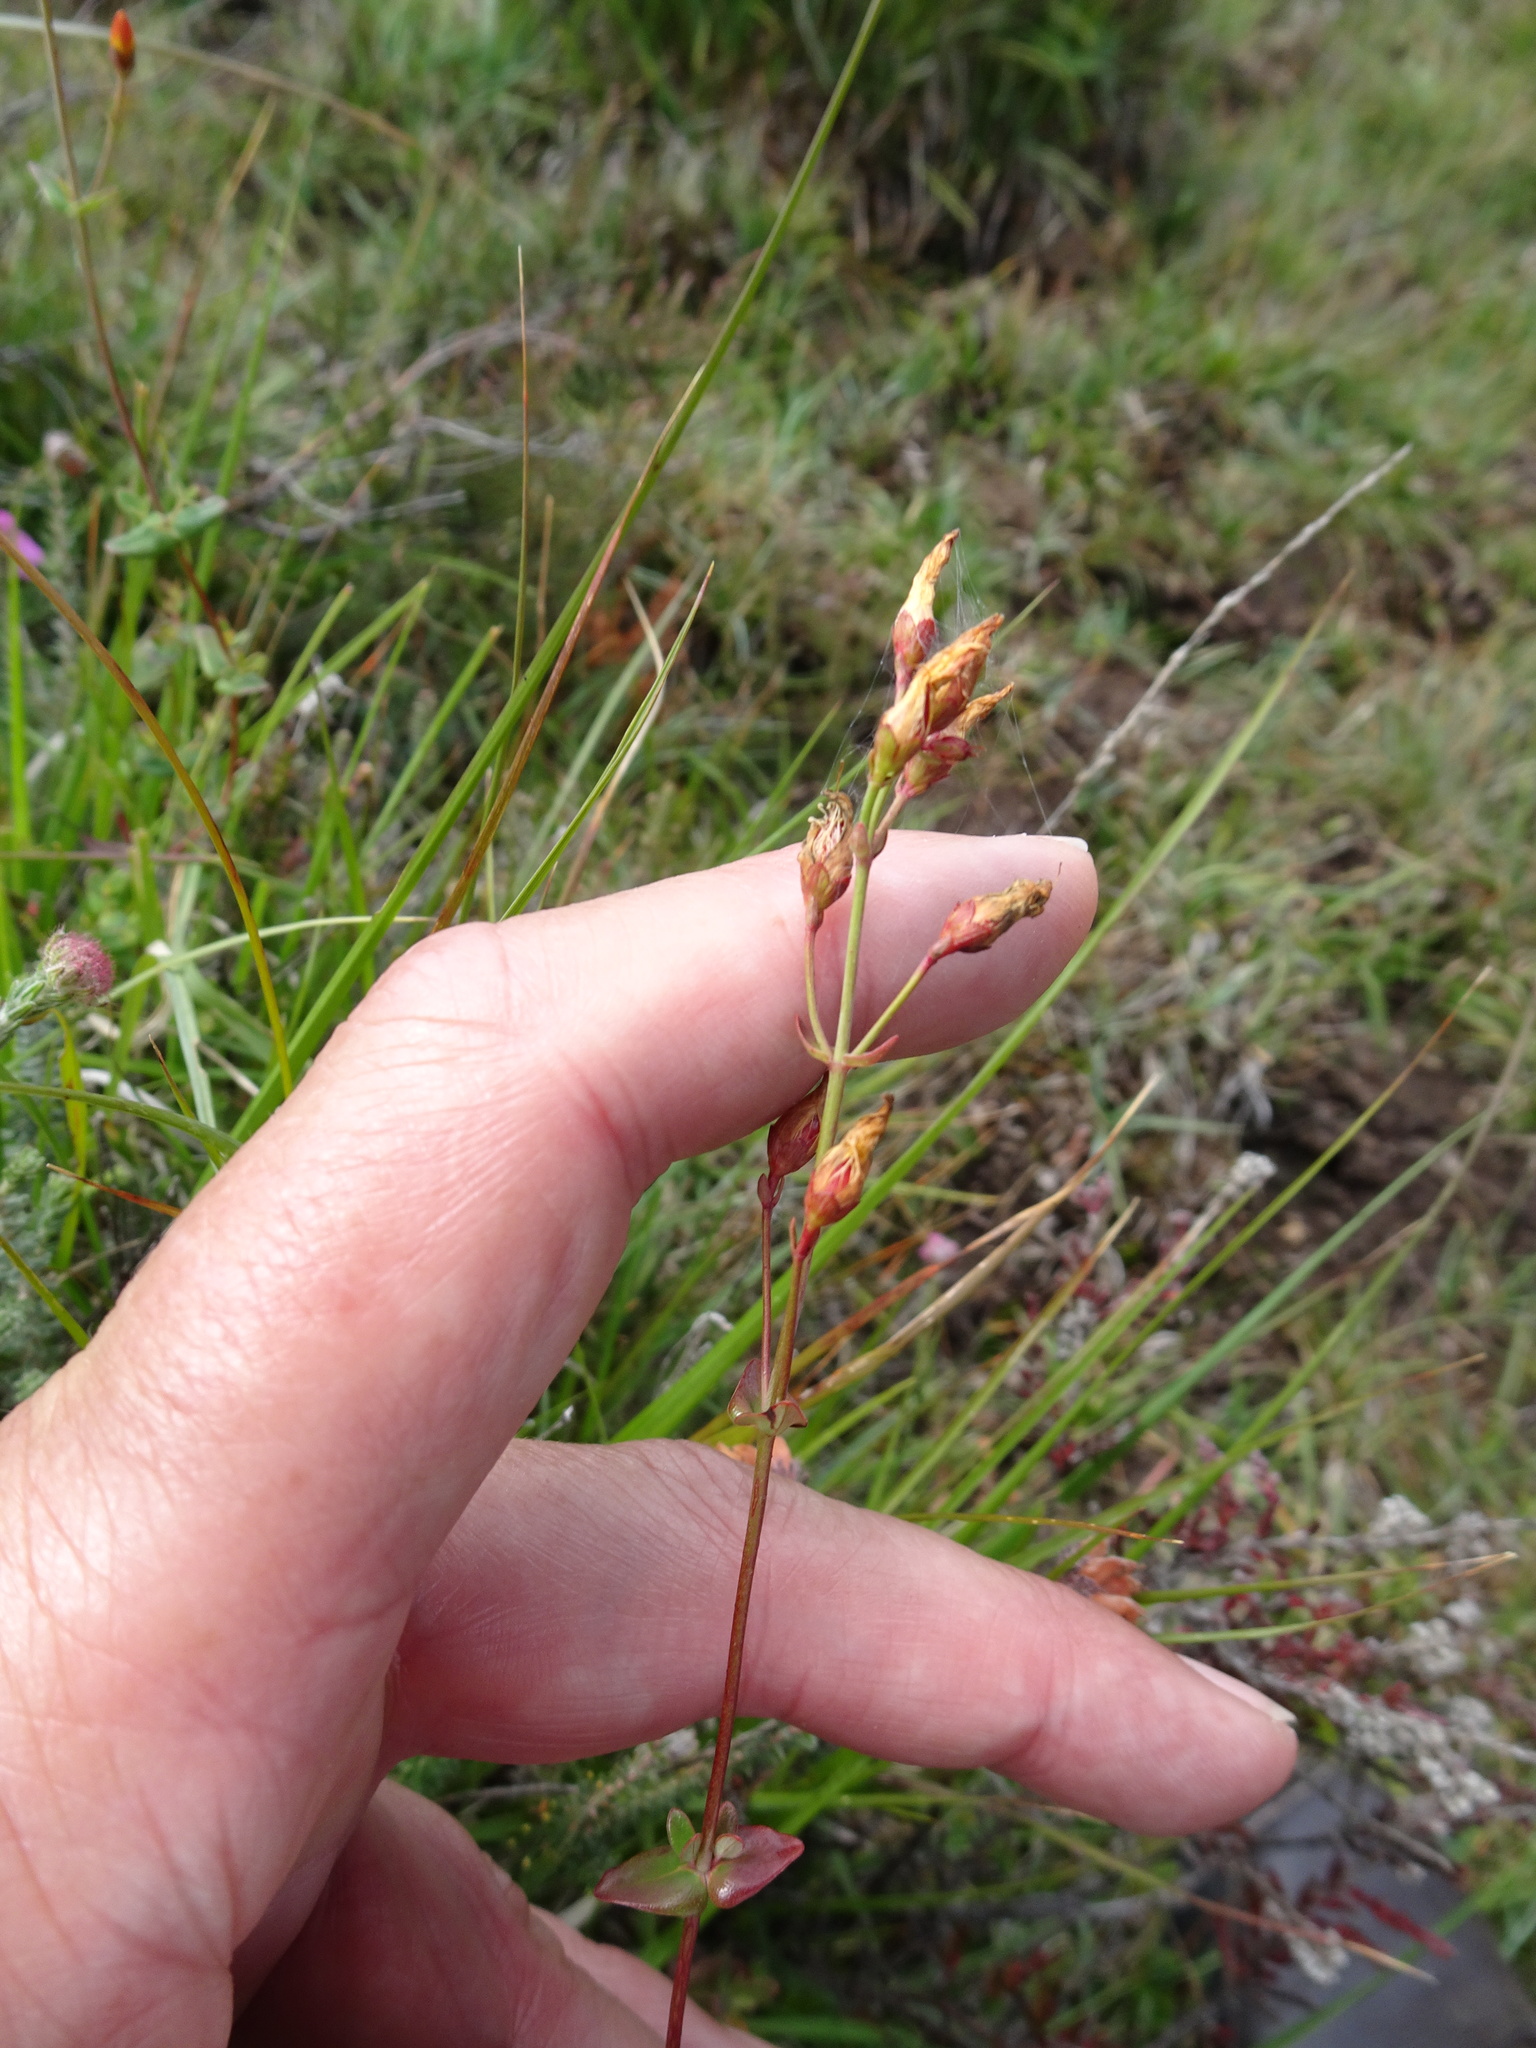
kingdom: Plantae
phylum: Tracheophyta
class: Magnoliopsida
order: Malpighiales
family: Hypericaceae
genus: Hypericum
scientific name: Hypericum pulchrum
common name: Slender st. john's-wort
